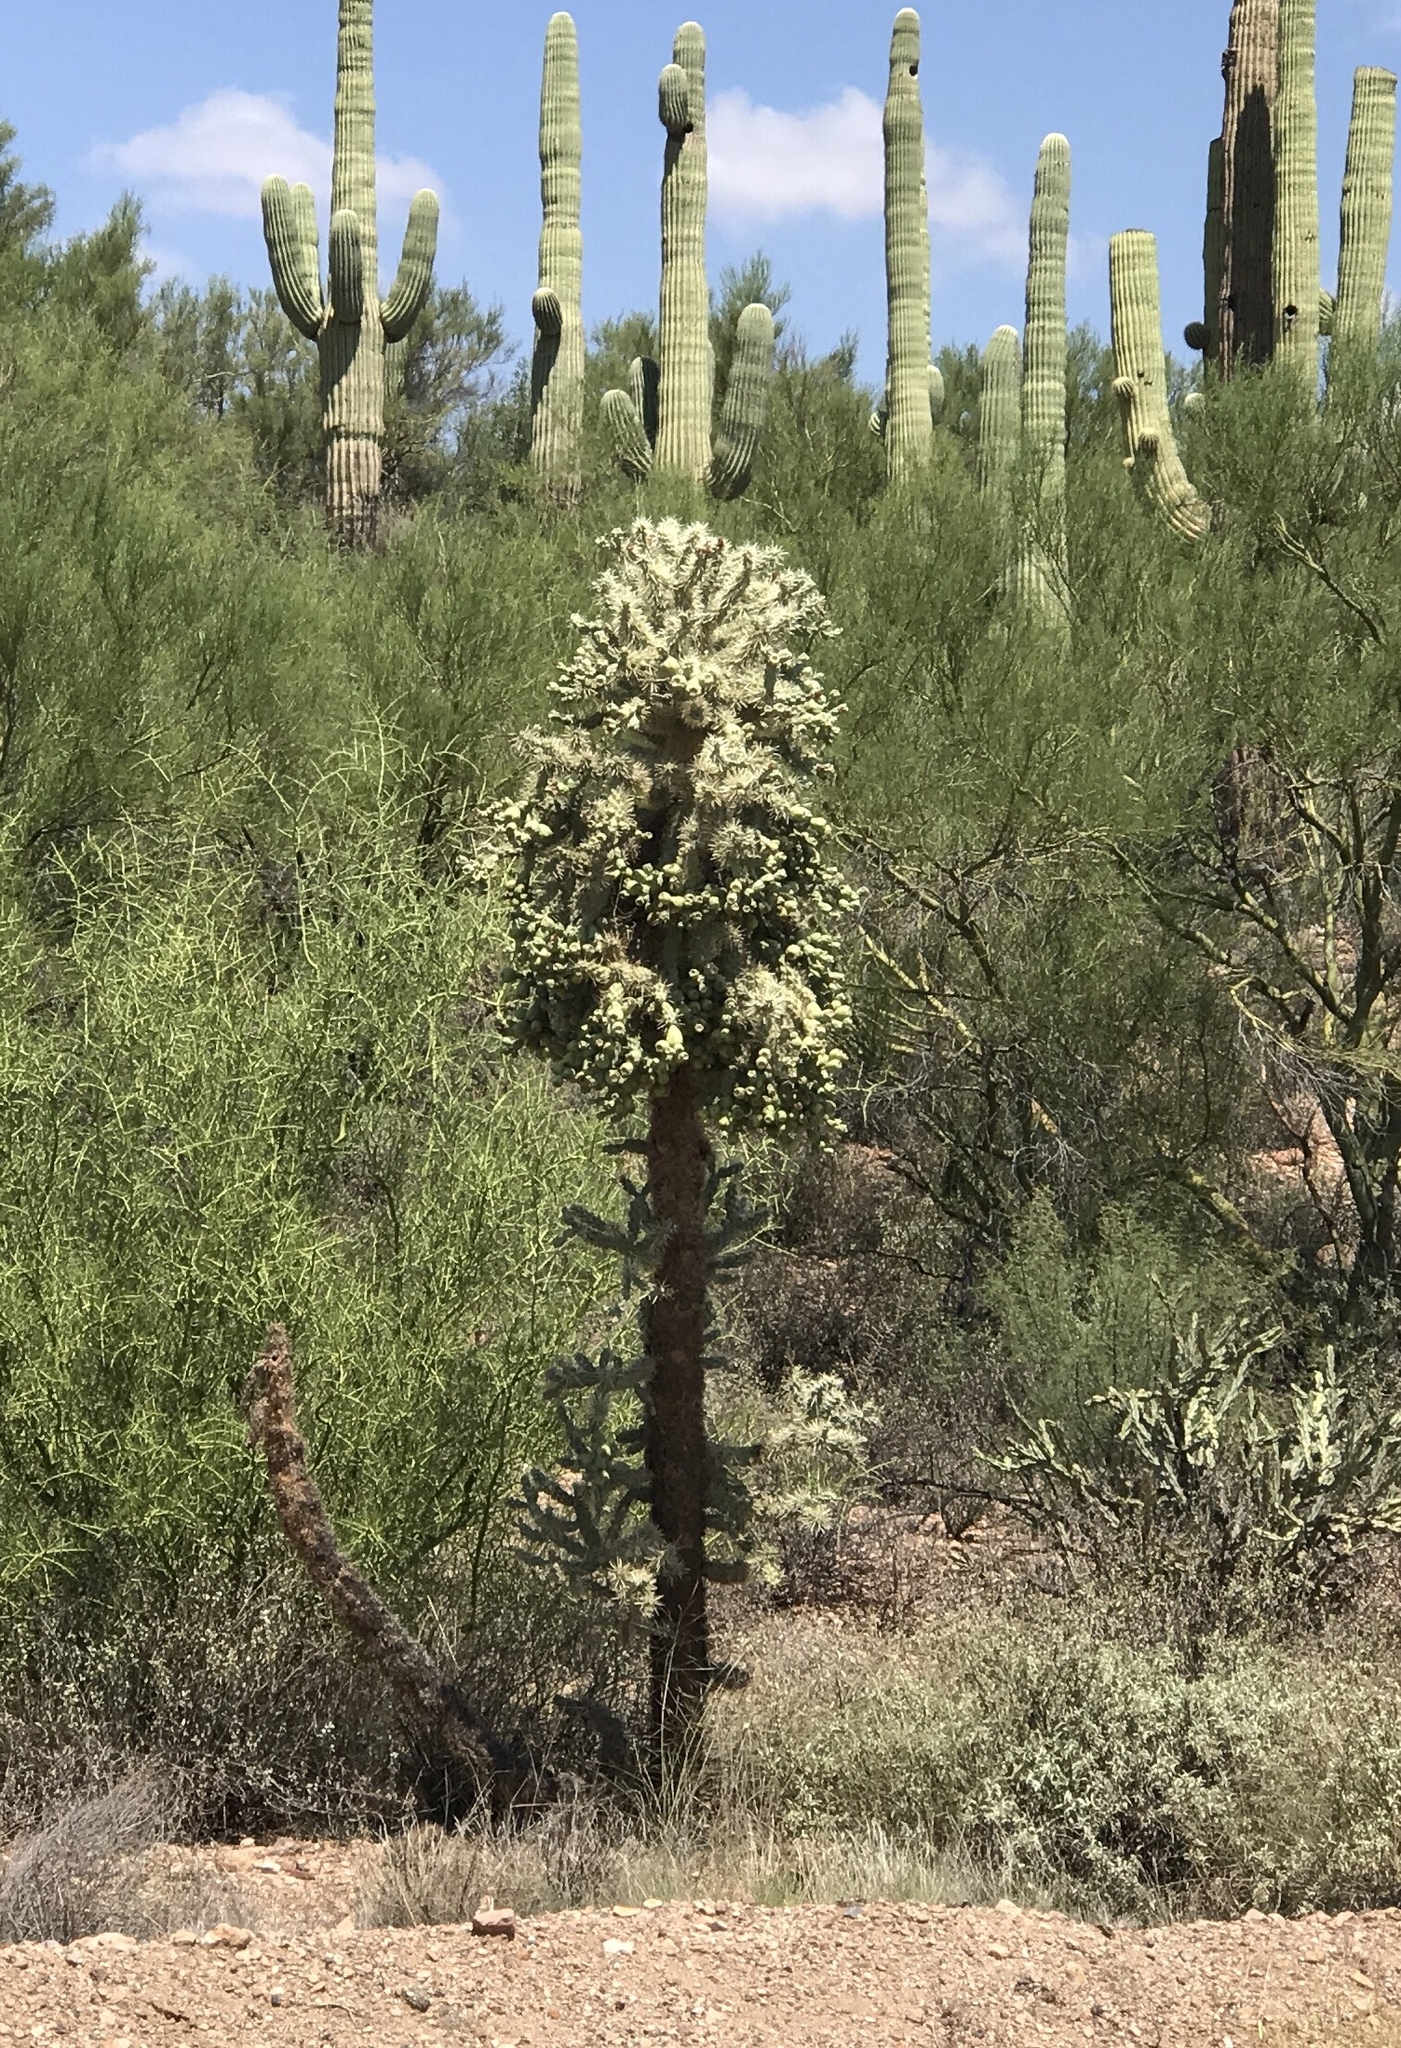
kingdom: Plantae
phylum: Tracheophyta
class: Magnoliopsida
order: Caryophyllales
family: Cactaceae
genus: Cylindropuntia
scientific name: Cylindropuntia fulgida
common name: Jumping cholla
